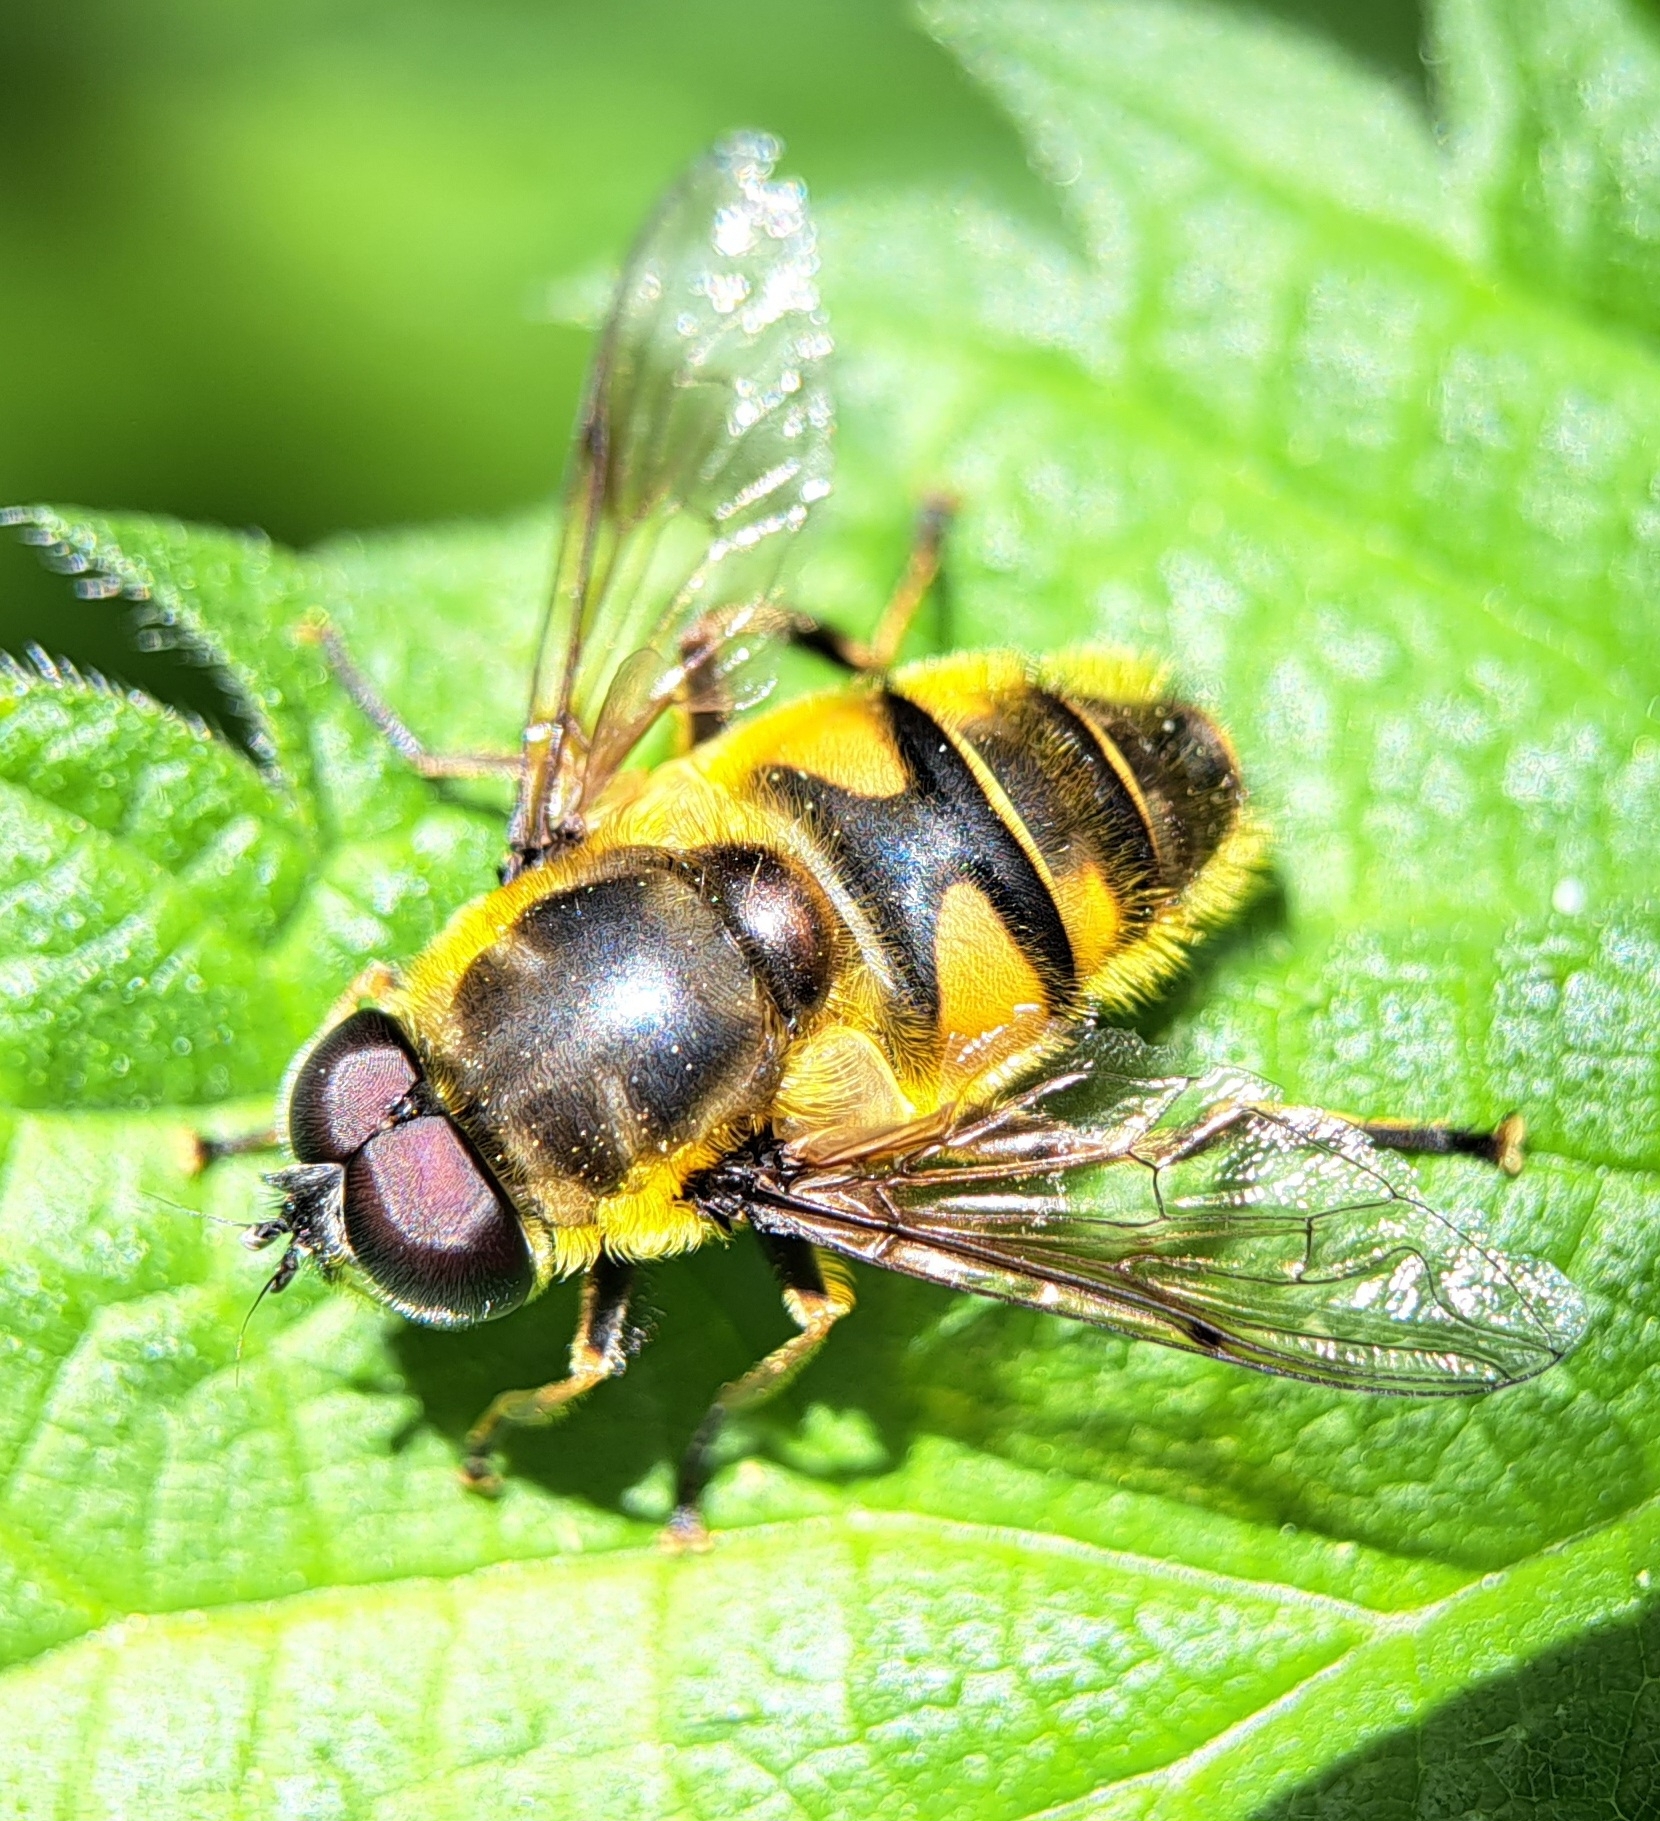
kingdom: Animalia
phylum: Arthropoda
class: Insecta
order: Diptera
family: Syrphidae
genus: Myathropa
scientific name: Myathropa florea
